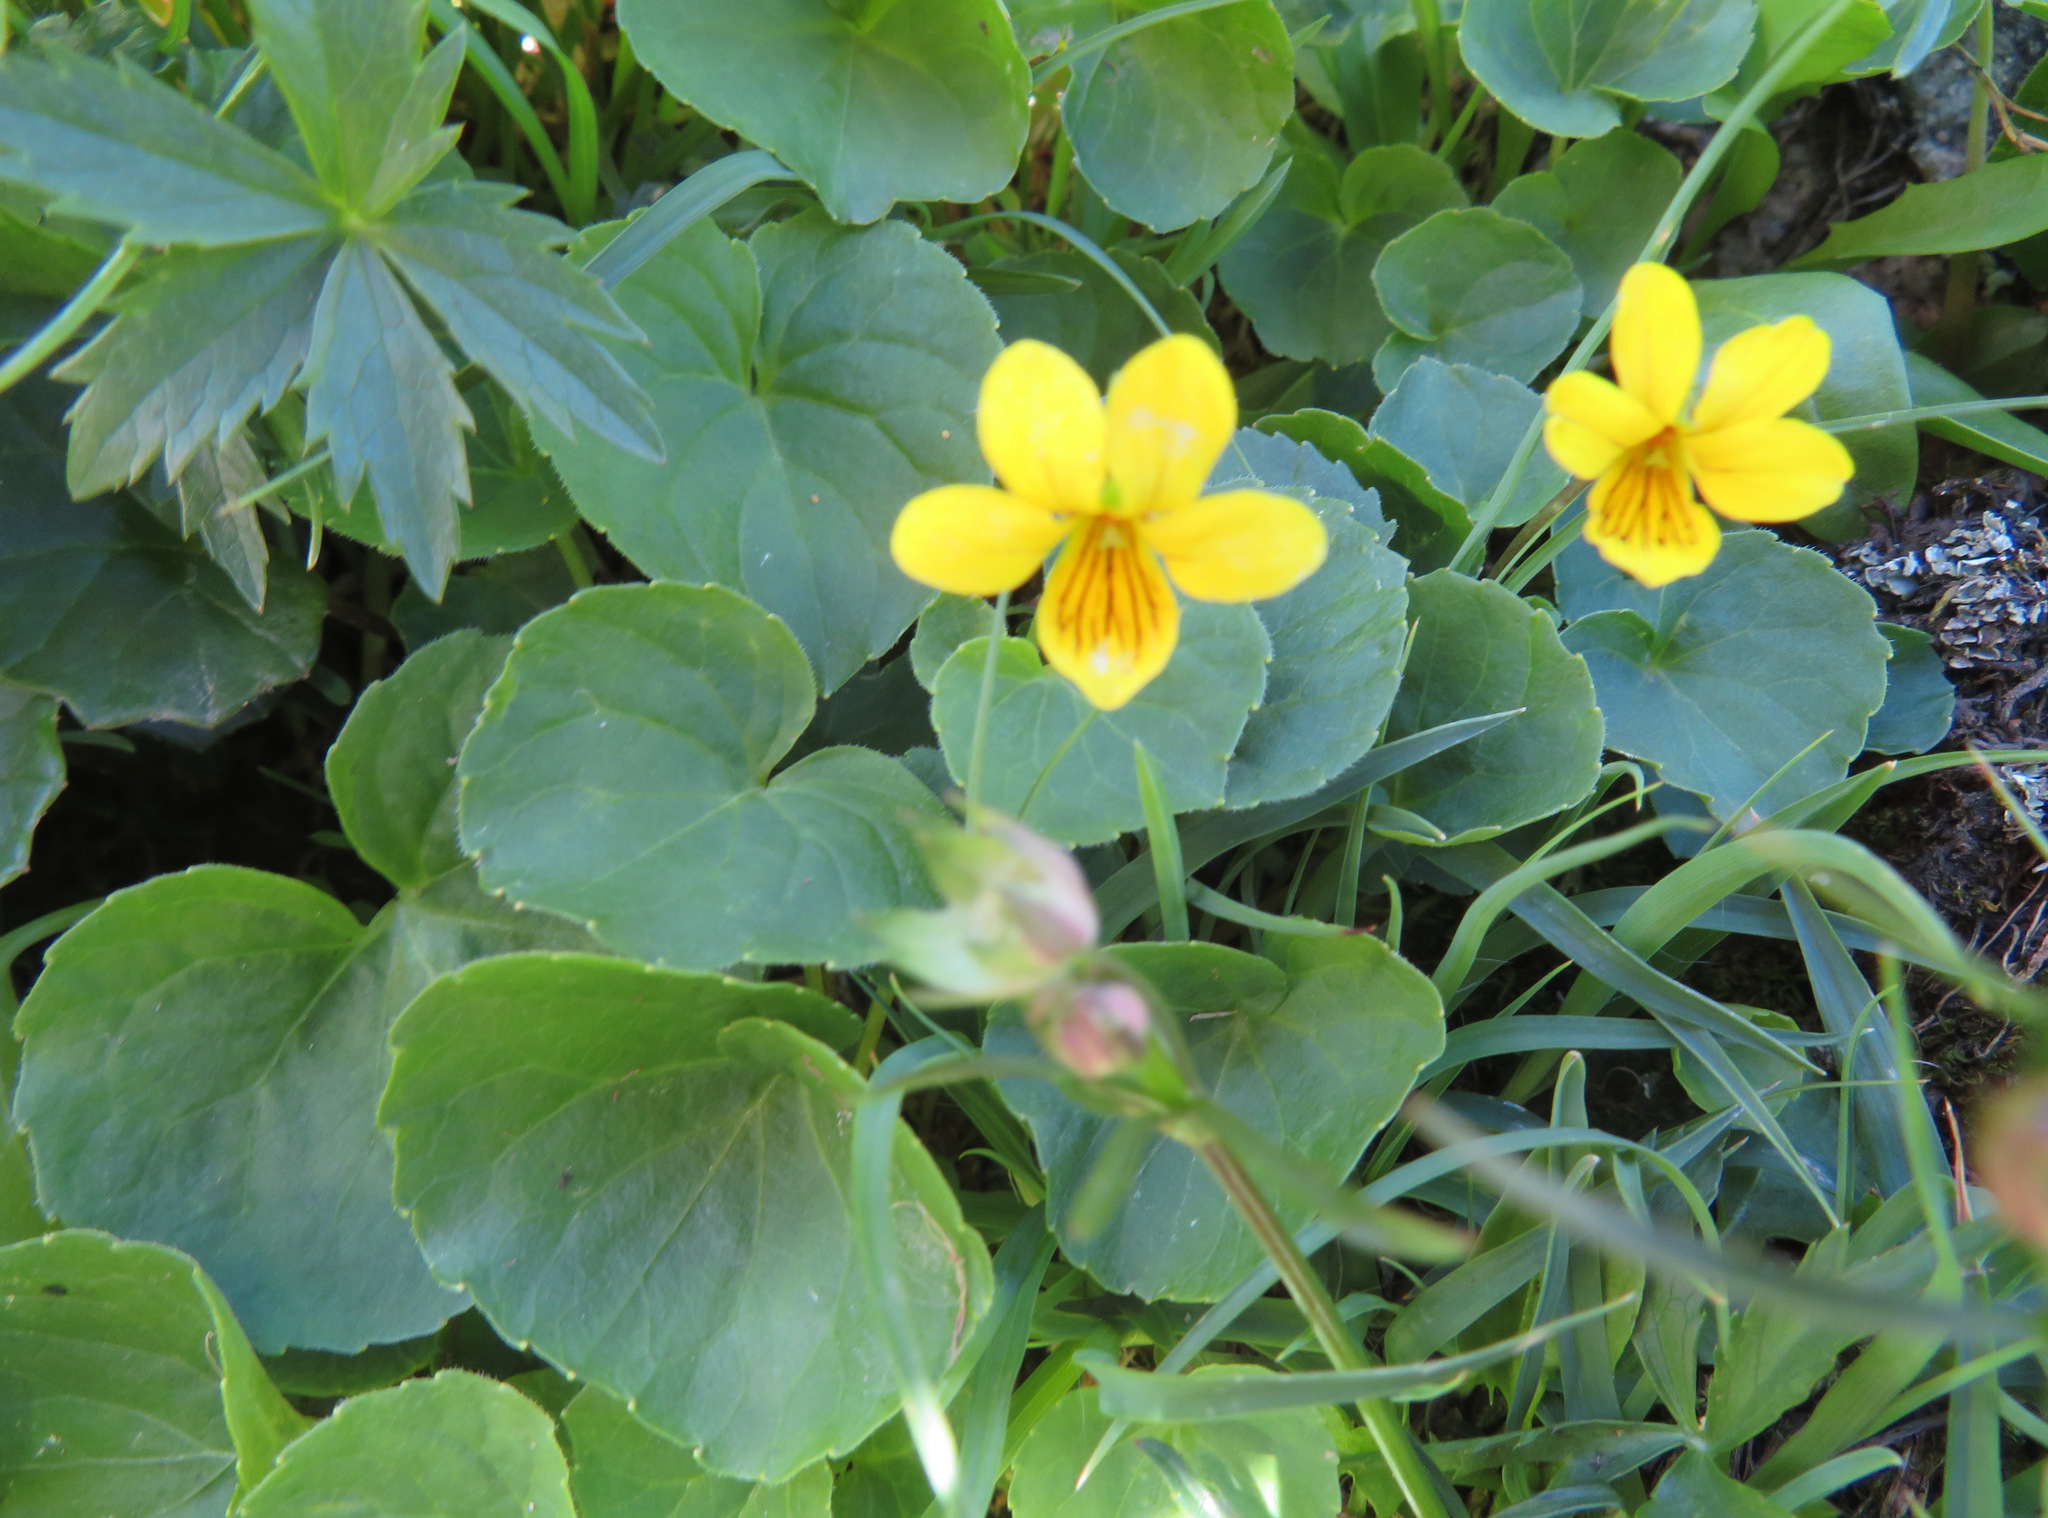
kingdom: Plantae
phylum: Tracheophyta
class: Magnoliopsida
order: Malpighiales
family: Violaceae
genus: Viola
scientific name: Viola biflora
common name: Alpine yellow violet
